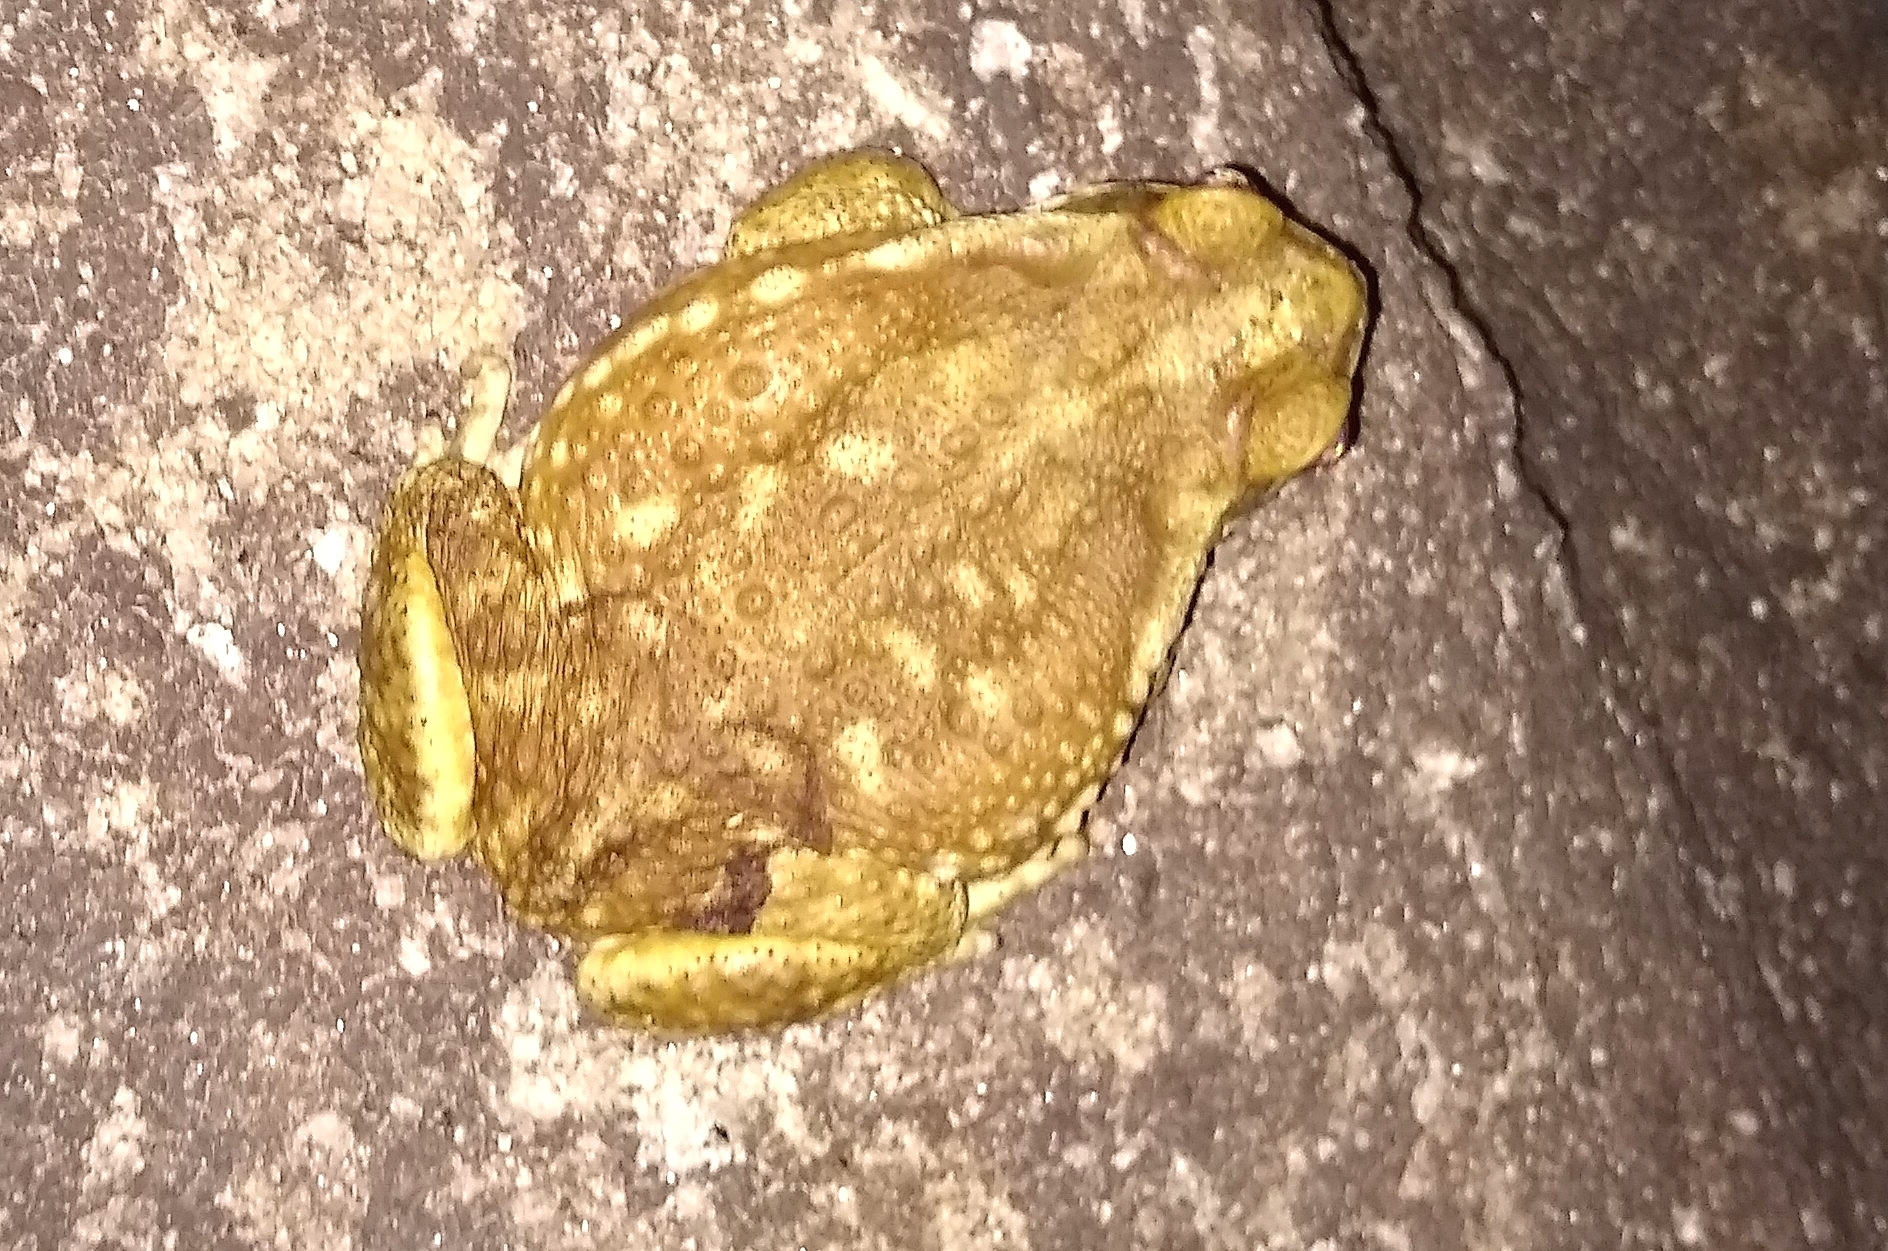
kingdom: Animalia
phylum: Chordata
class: Amphibia
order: Anura
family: Bufonidae
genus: Rhinella
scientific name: Rhinella arenarum
